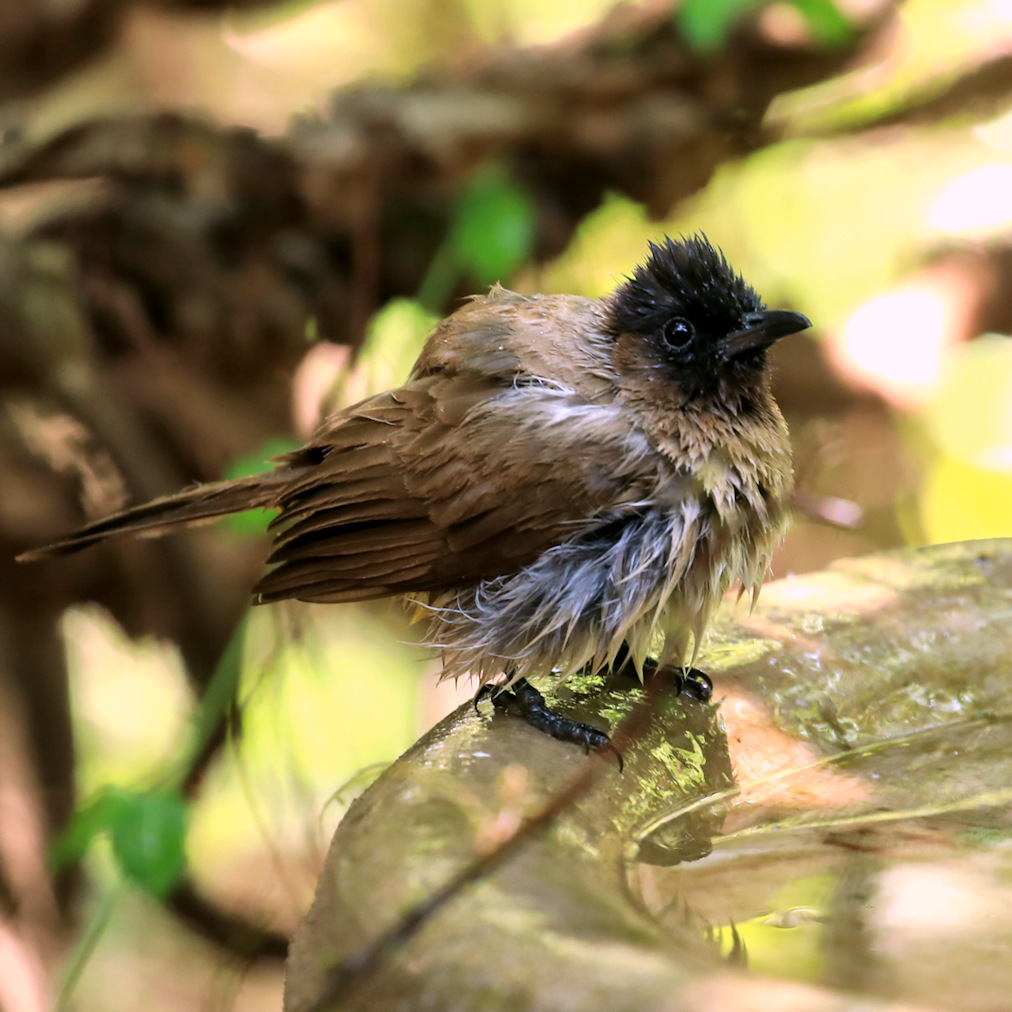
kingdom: Animalia
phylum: Chordata
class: Aves
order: Passeriformes
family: Pycnonotidae
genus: Pycnonotus
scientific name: Pycnonotus barbatus
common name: Common bulbul
